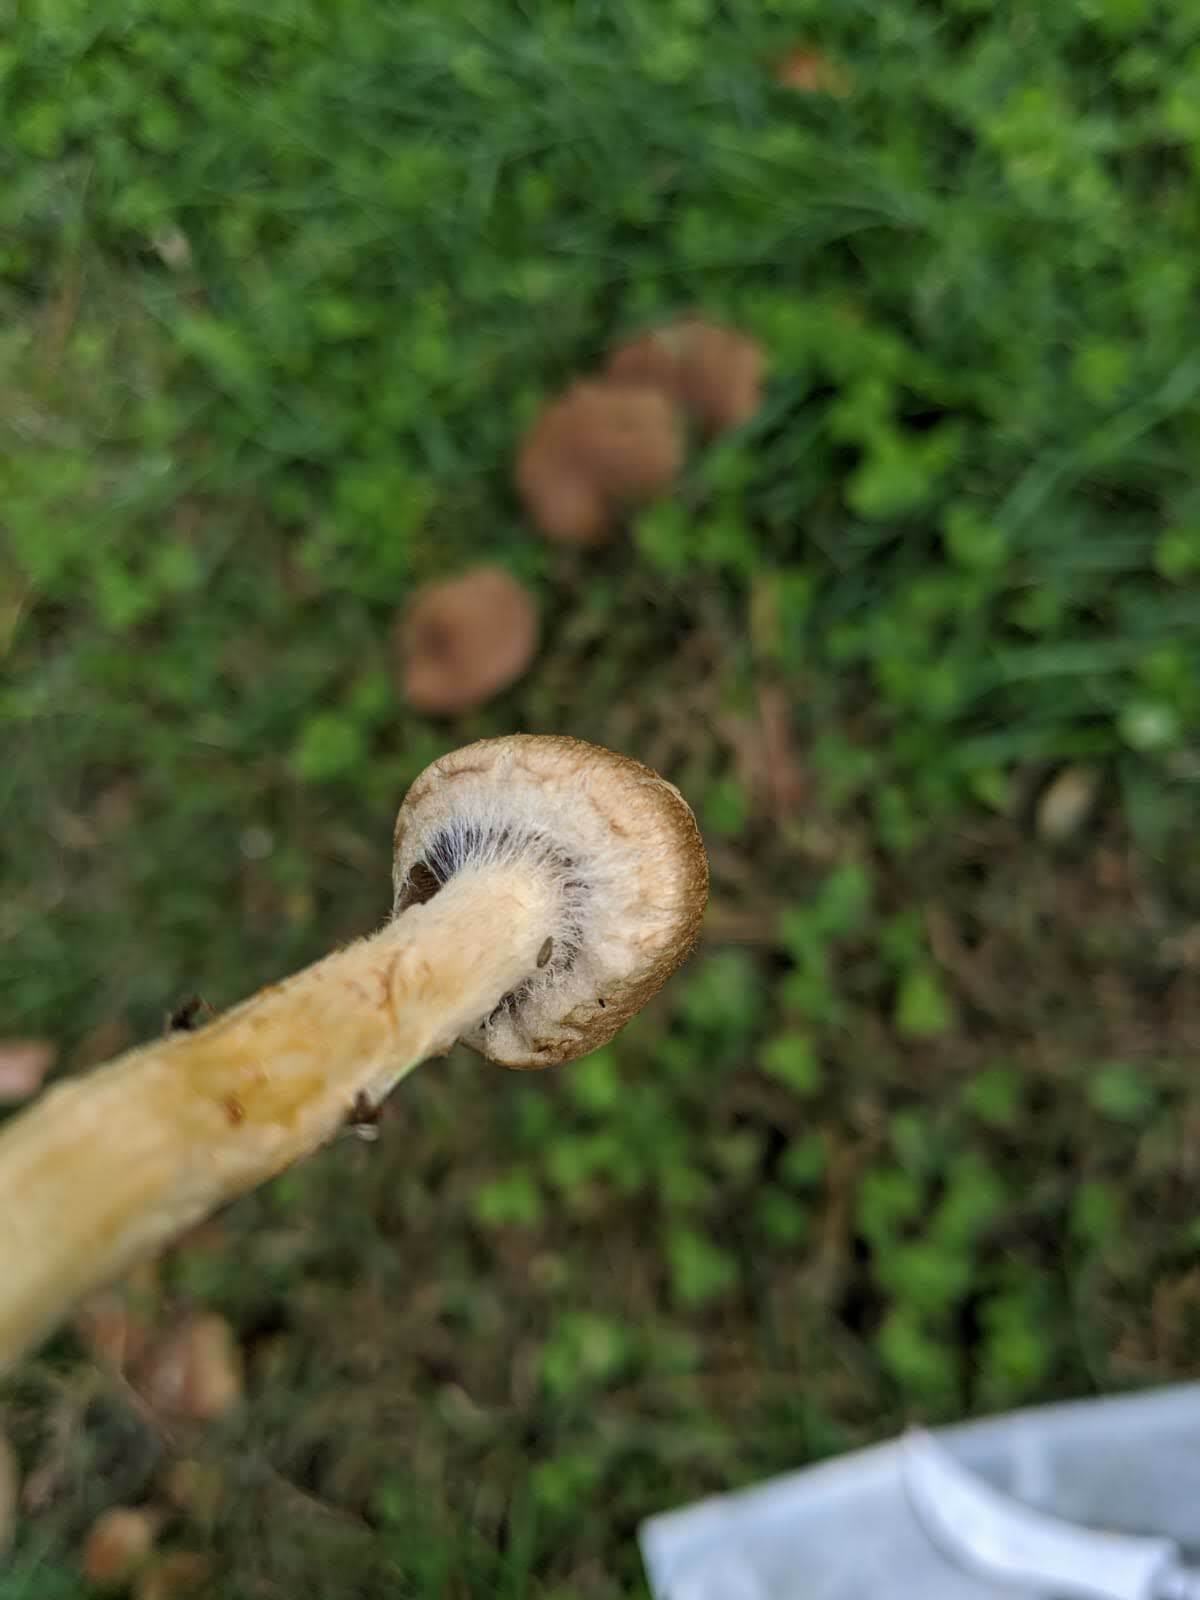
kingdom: Fungi
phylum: Basidiomycota
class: Agaricomycetes
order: Agaricales
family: Psathyrellaceae
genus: Lacrymaria
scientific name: Lacrymaria lacrymabunda
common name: Weeping widow
